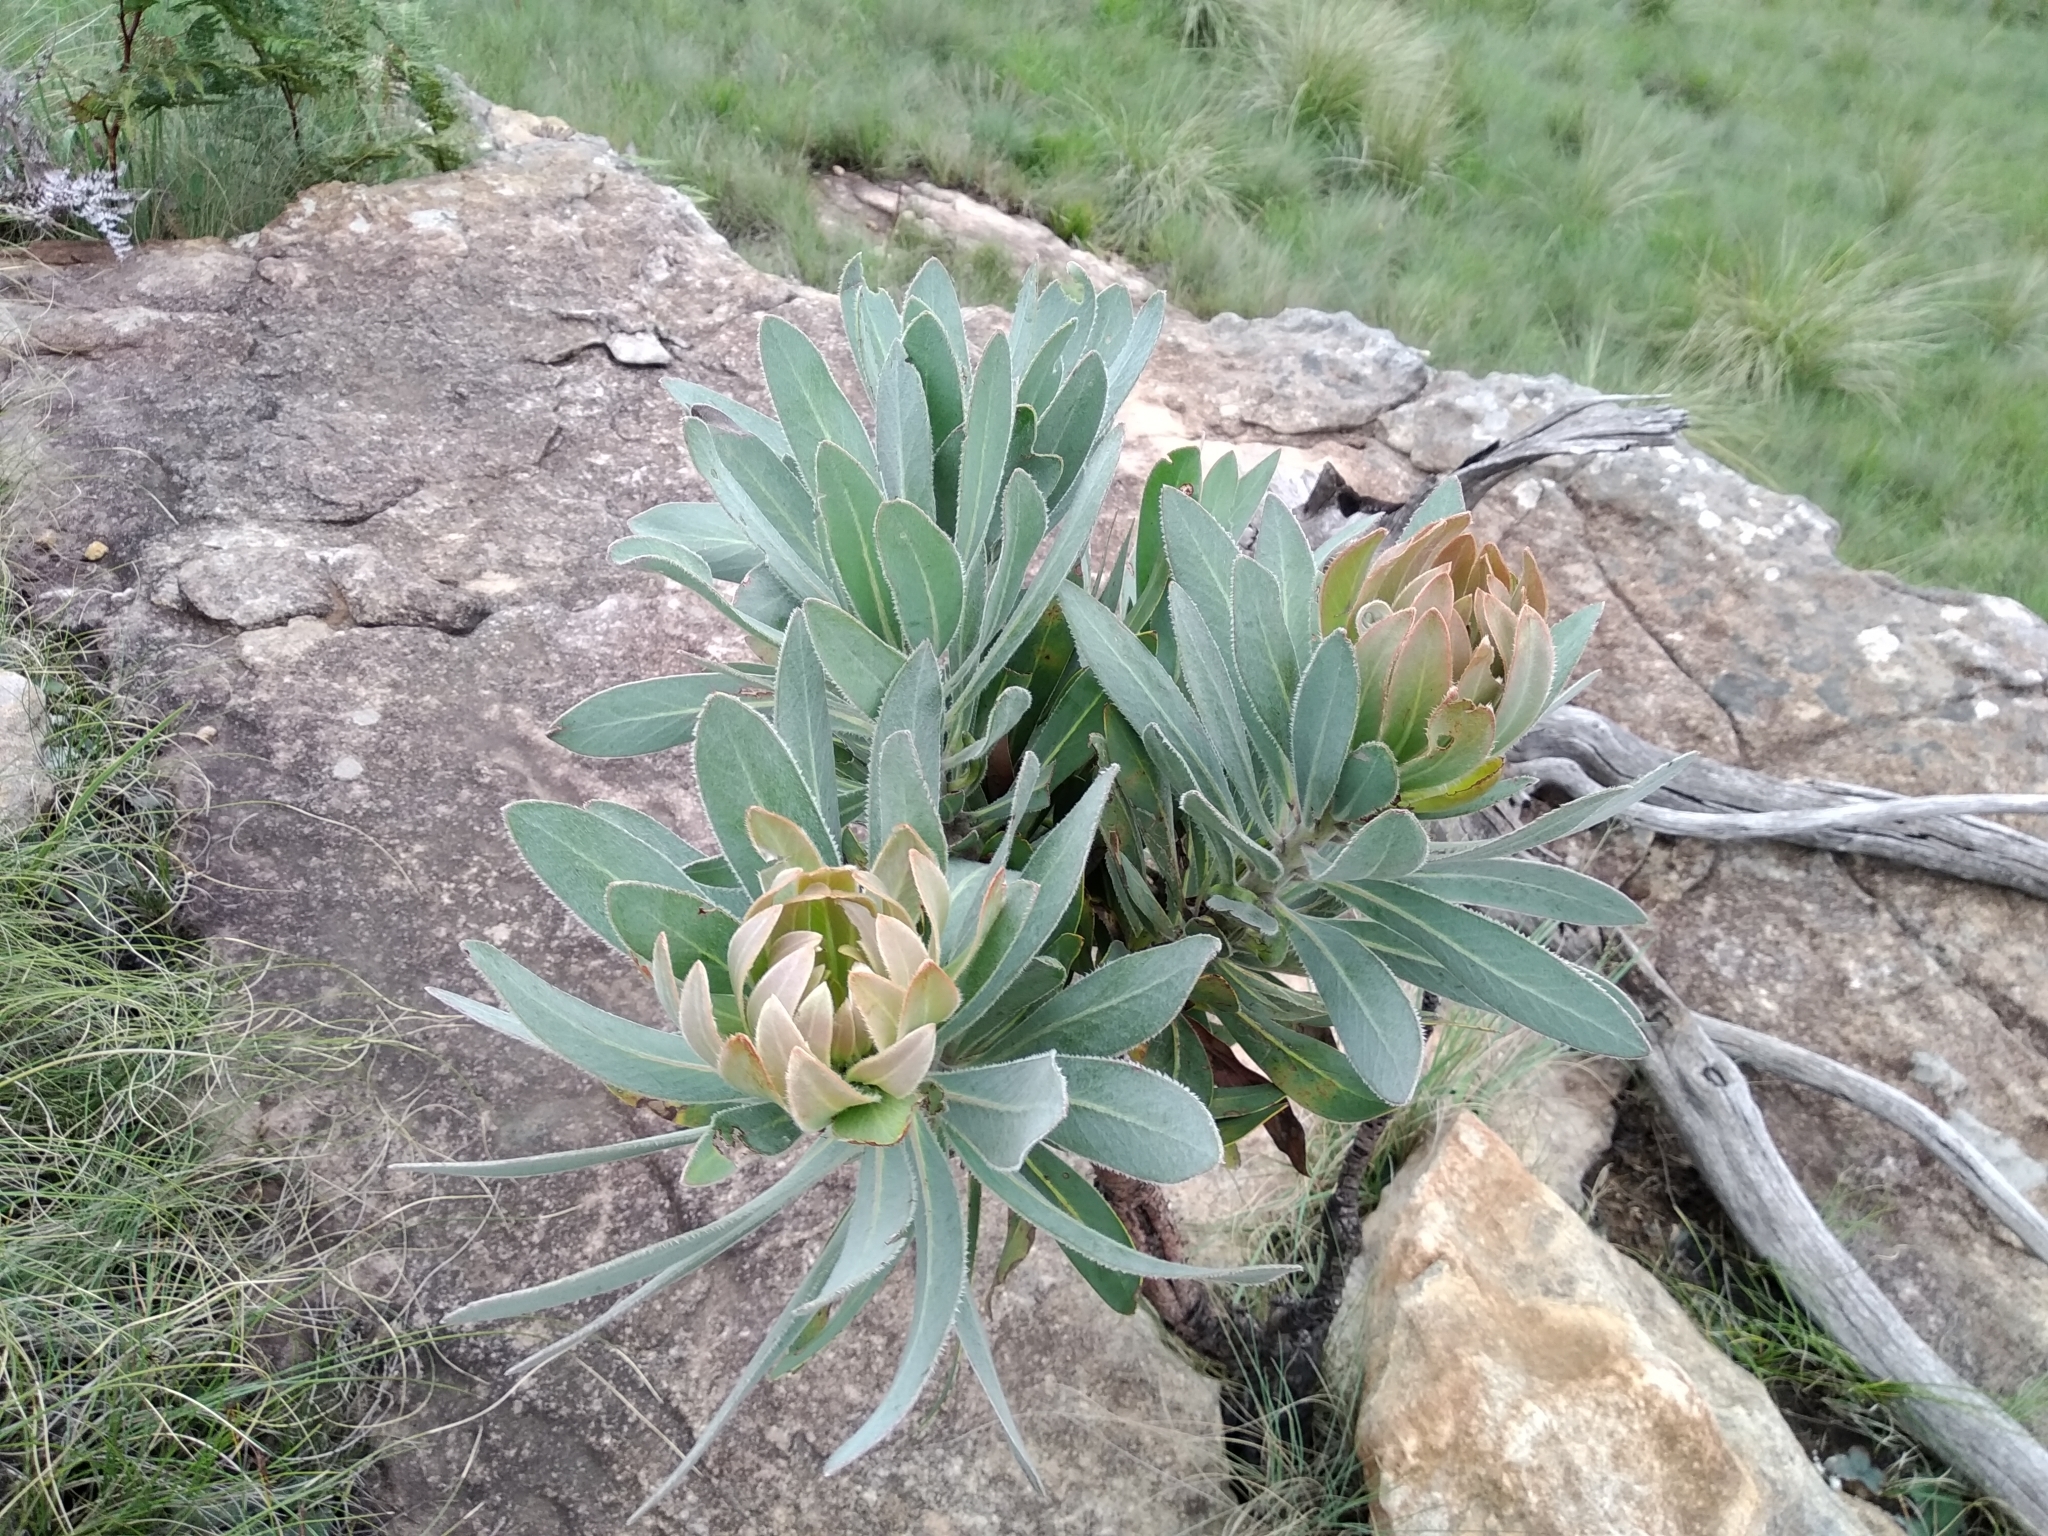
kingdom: Plantae
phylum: Tracheophyta
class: Magnoliopsida
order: Proteales
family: Proteaceae
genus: Protea
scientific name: Protea roupelliae
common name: Silver sugarbush
